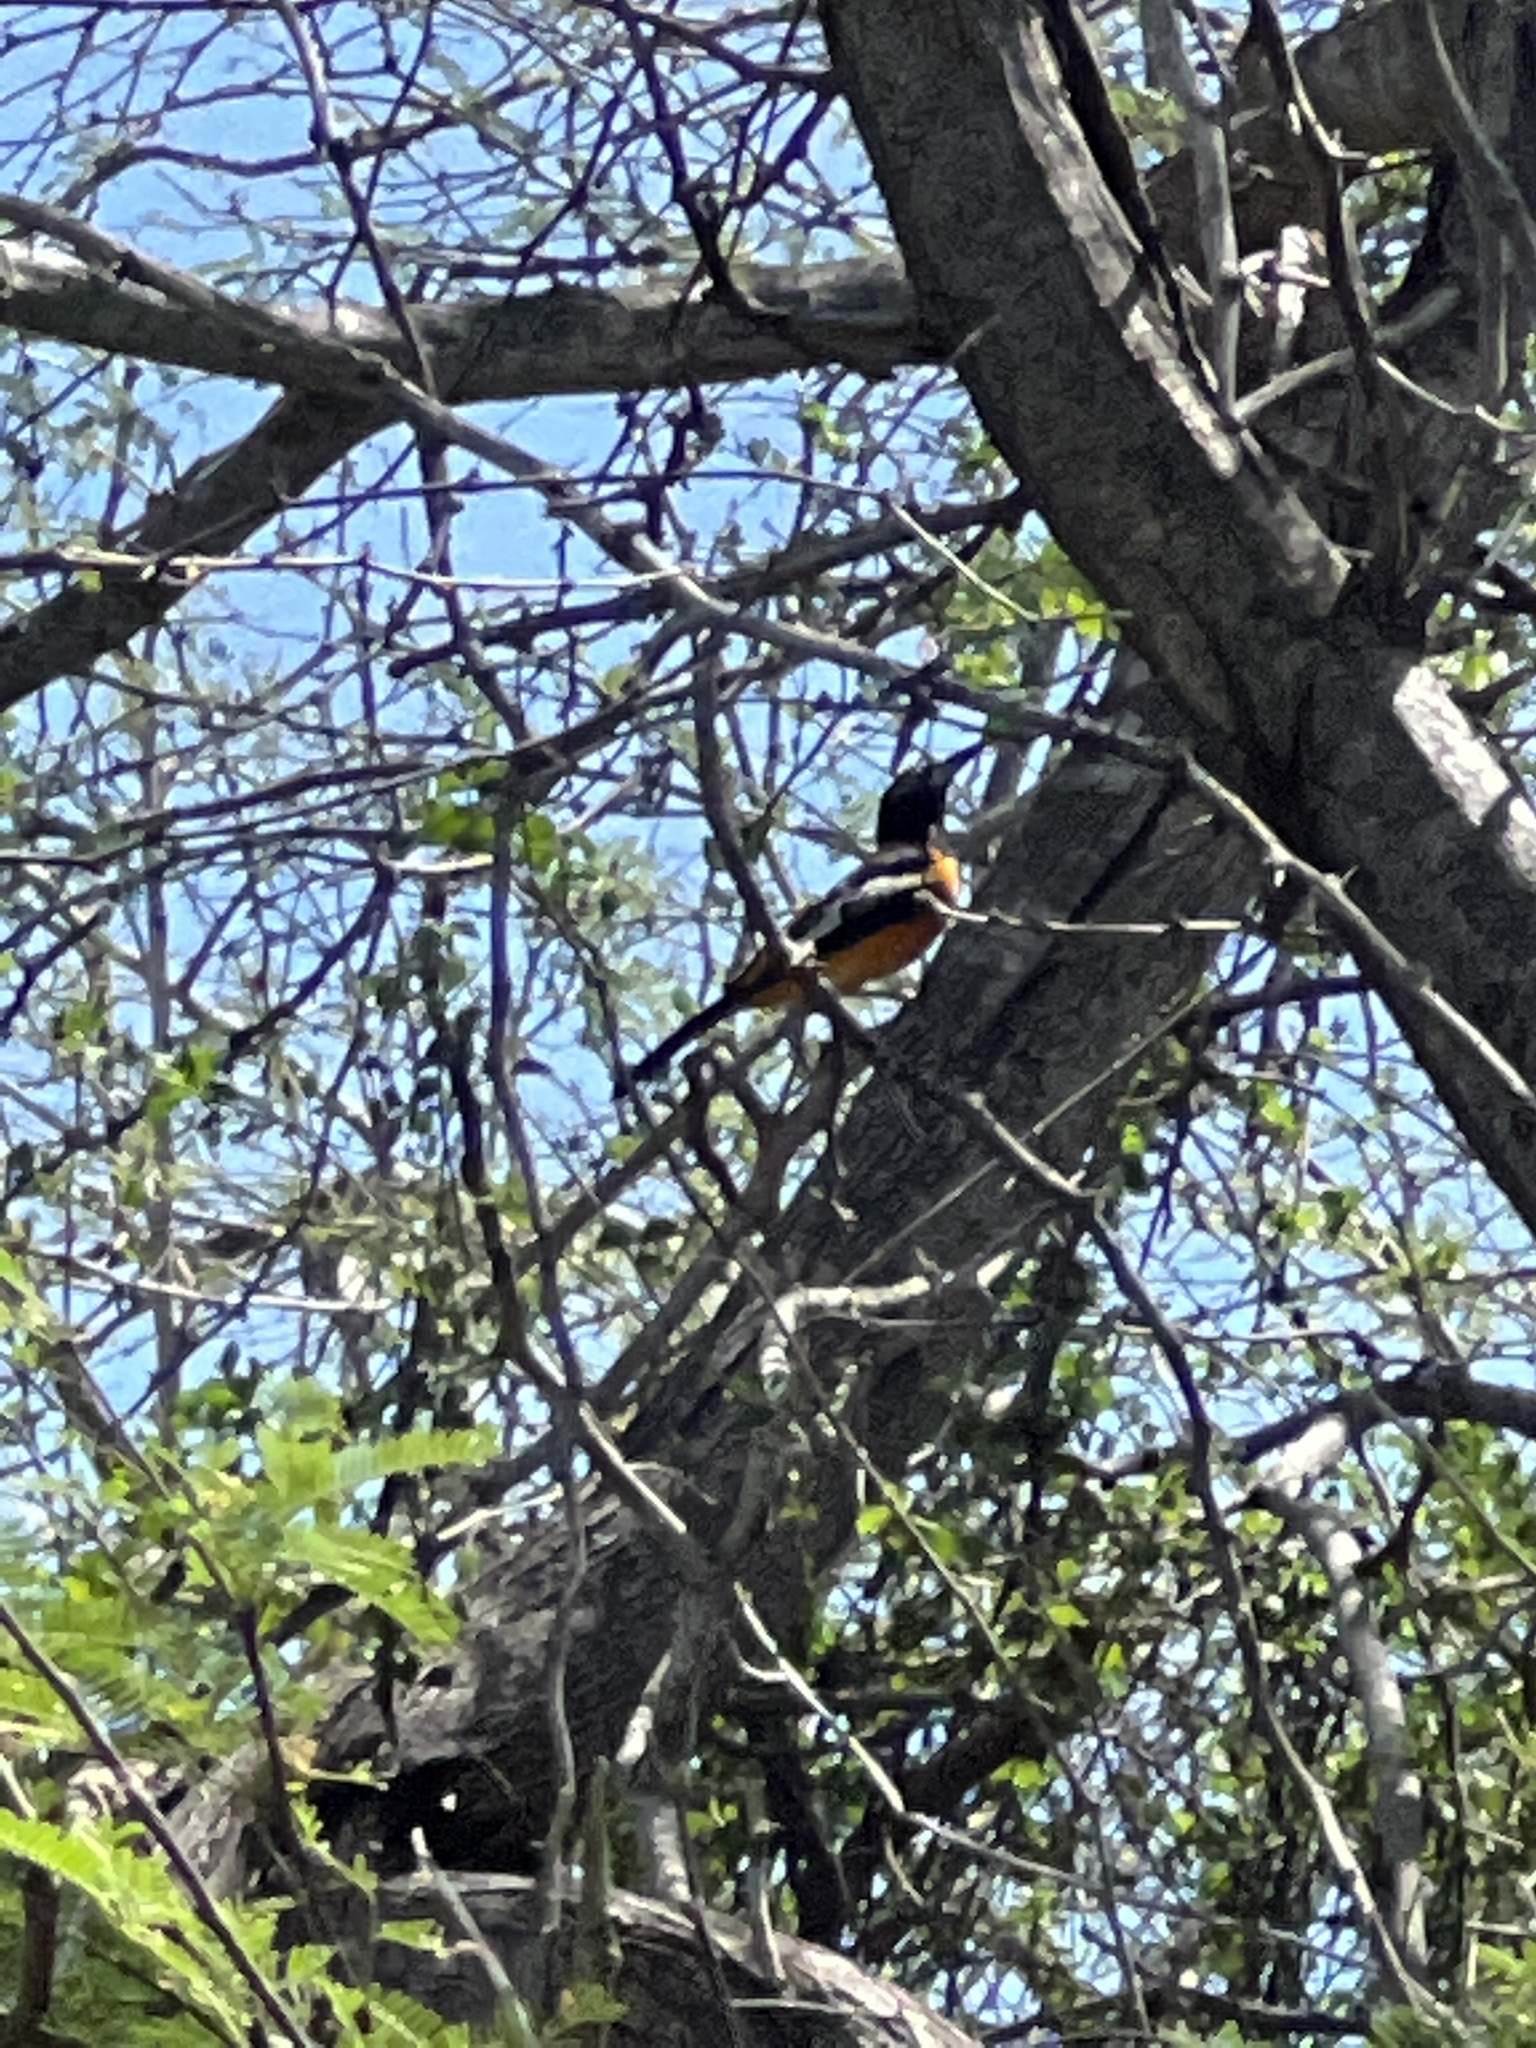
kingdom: Animalia
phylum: Chordata
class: Aves
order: Passeriformes
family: Icteridae
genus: Icterus
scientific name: Icterus icterus
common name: Venezuelan troupial
